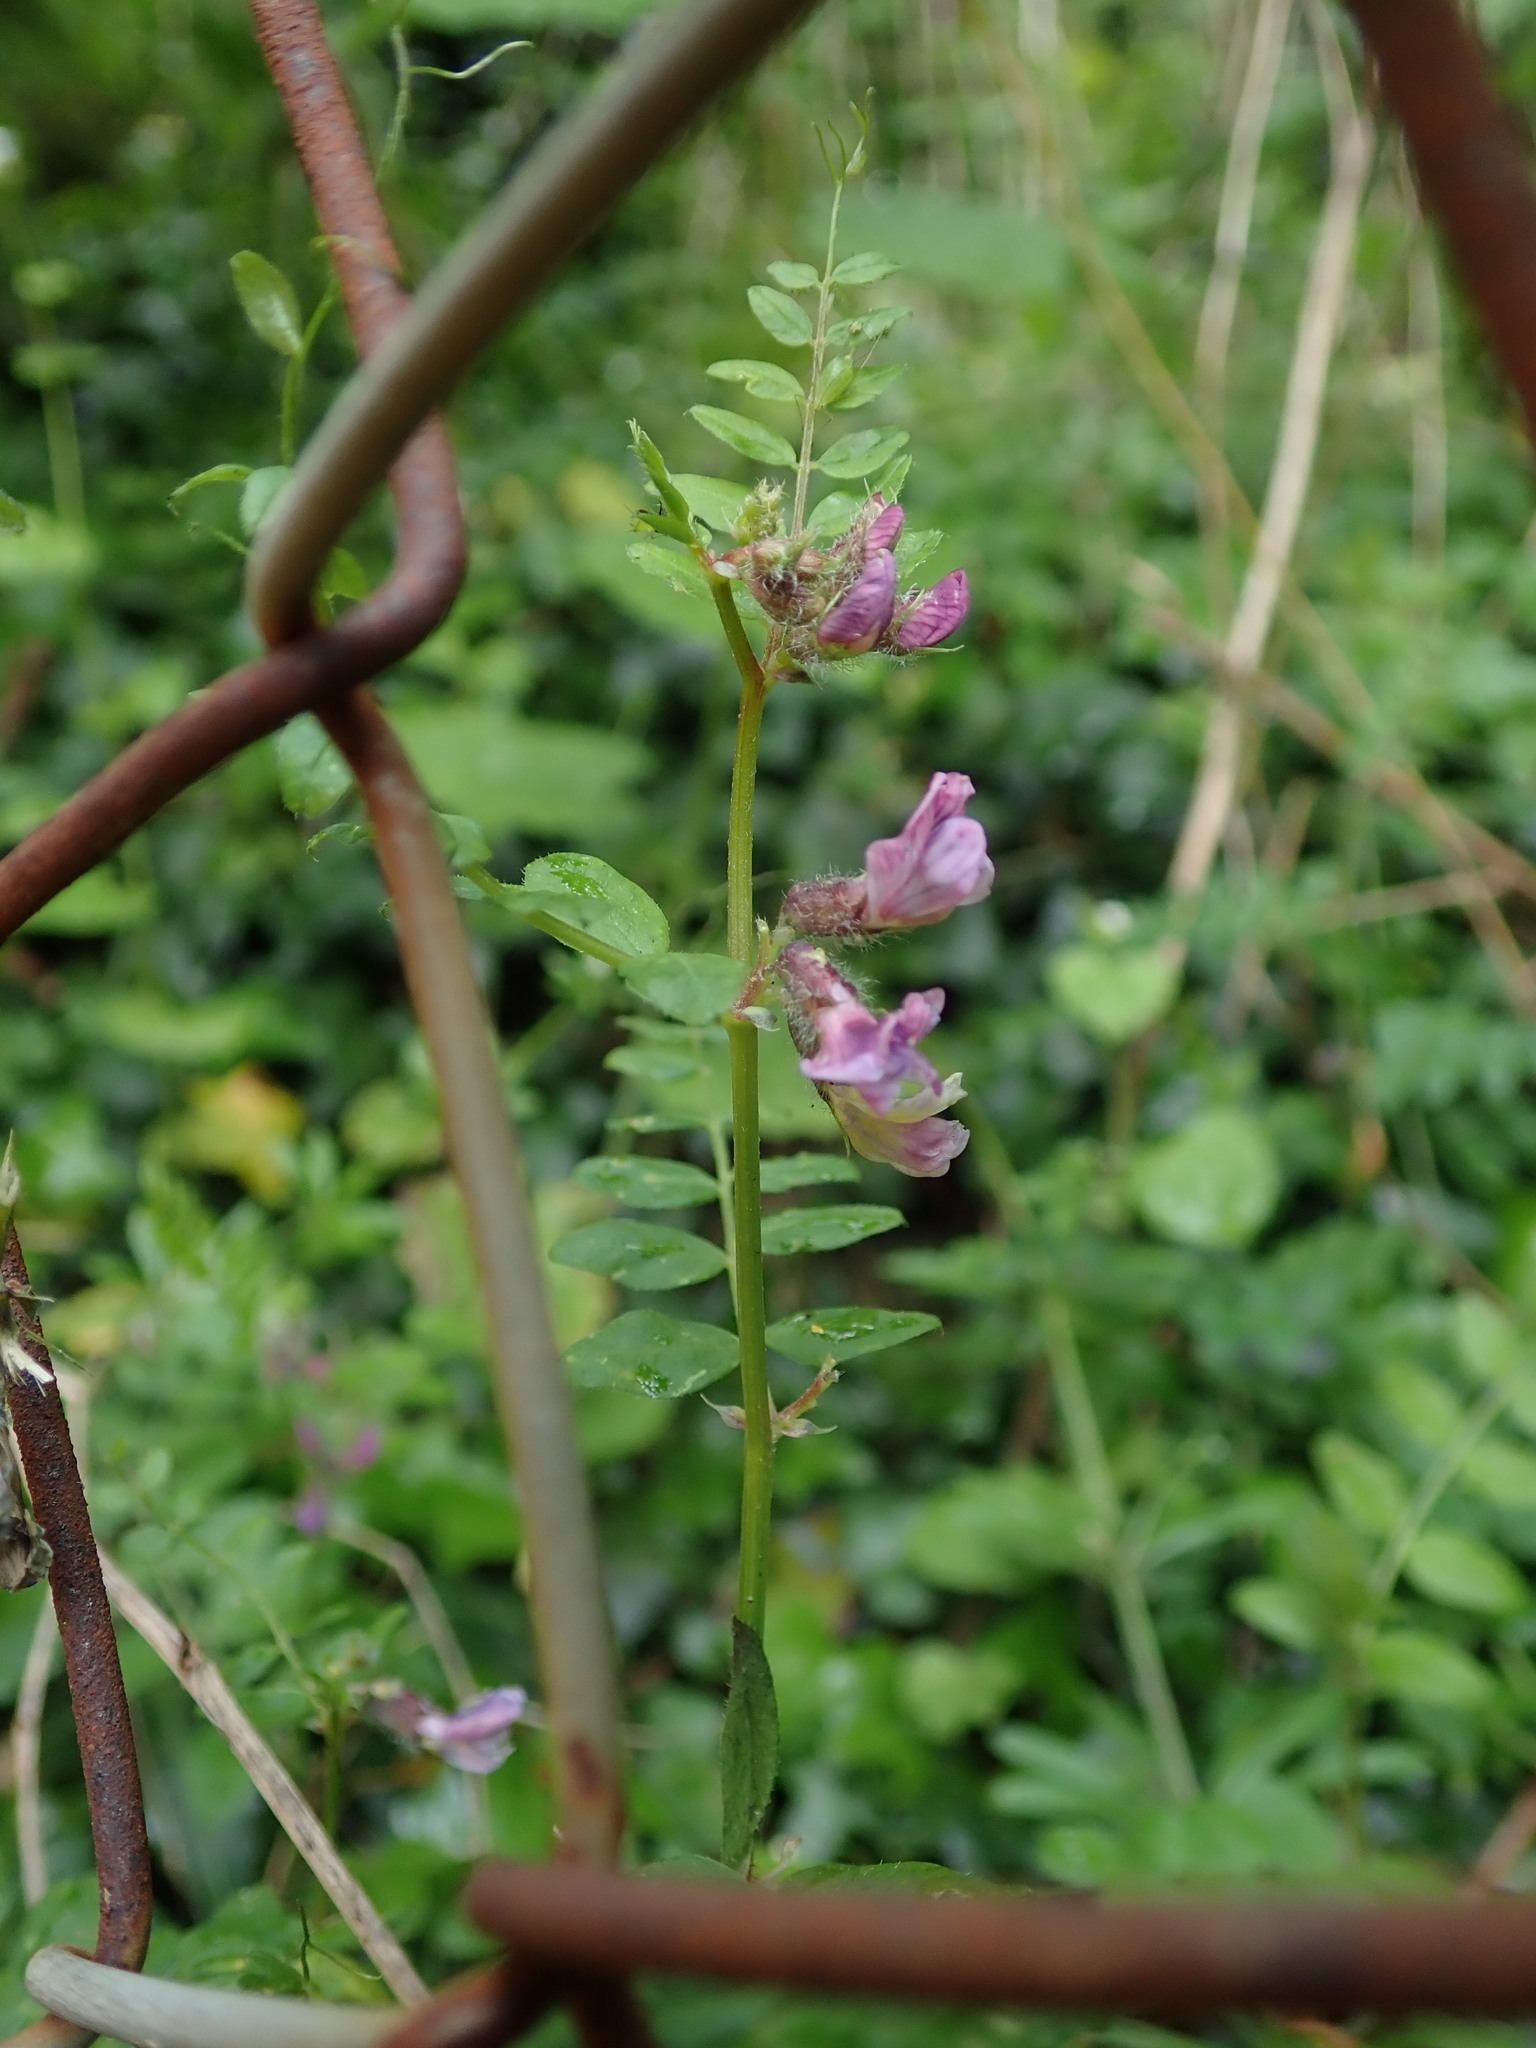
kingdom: Plantae
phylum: Tracheophyta
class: Magnoliopsida
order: Fabales
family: Fabaceae
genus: Vicia
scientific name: Vicia sepium
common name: Bush vetch
